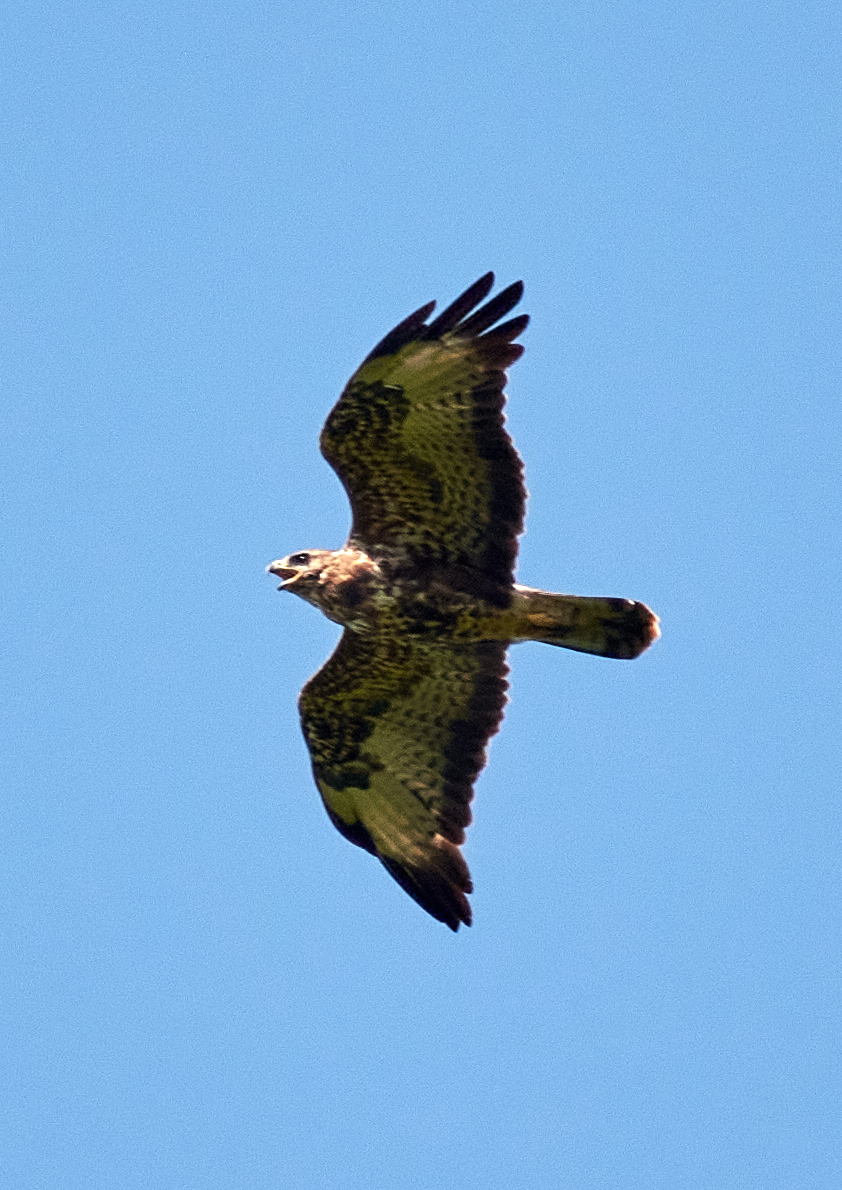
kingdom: Animalia
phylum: Chordata
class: Aves
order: Accipitriformes
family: Accipitridae
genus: Buteo
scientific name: Buteo buteo
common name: Common buzzard
